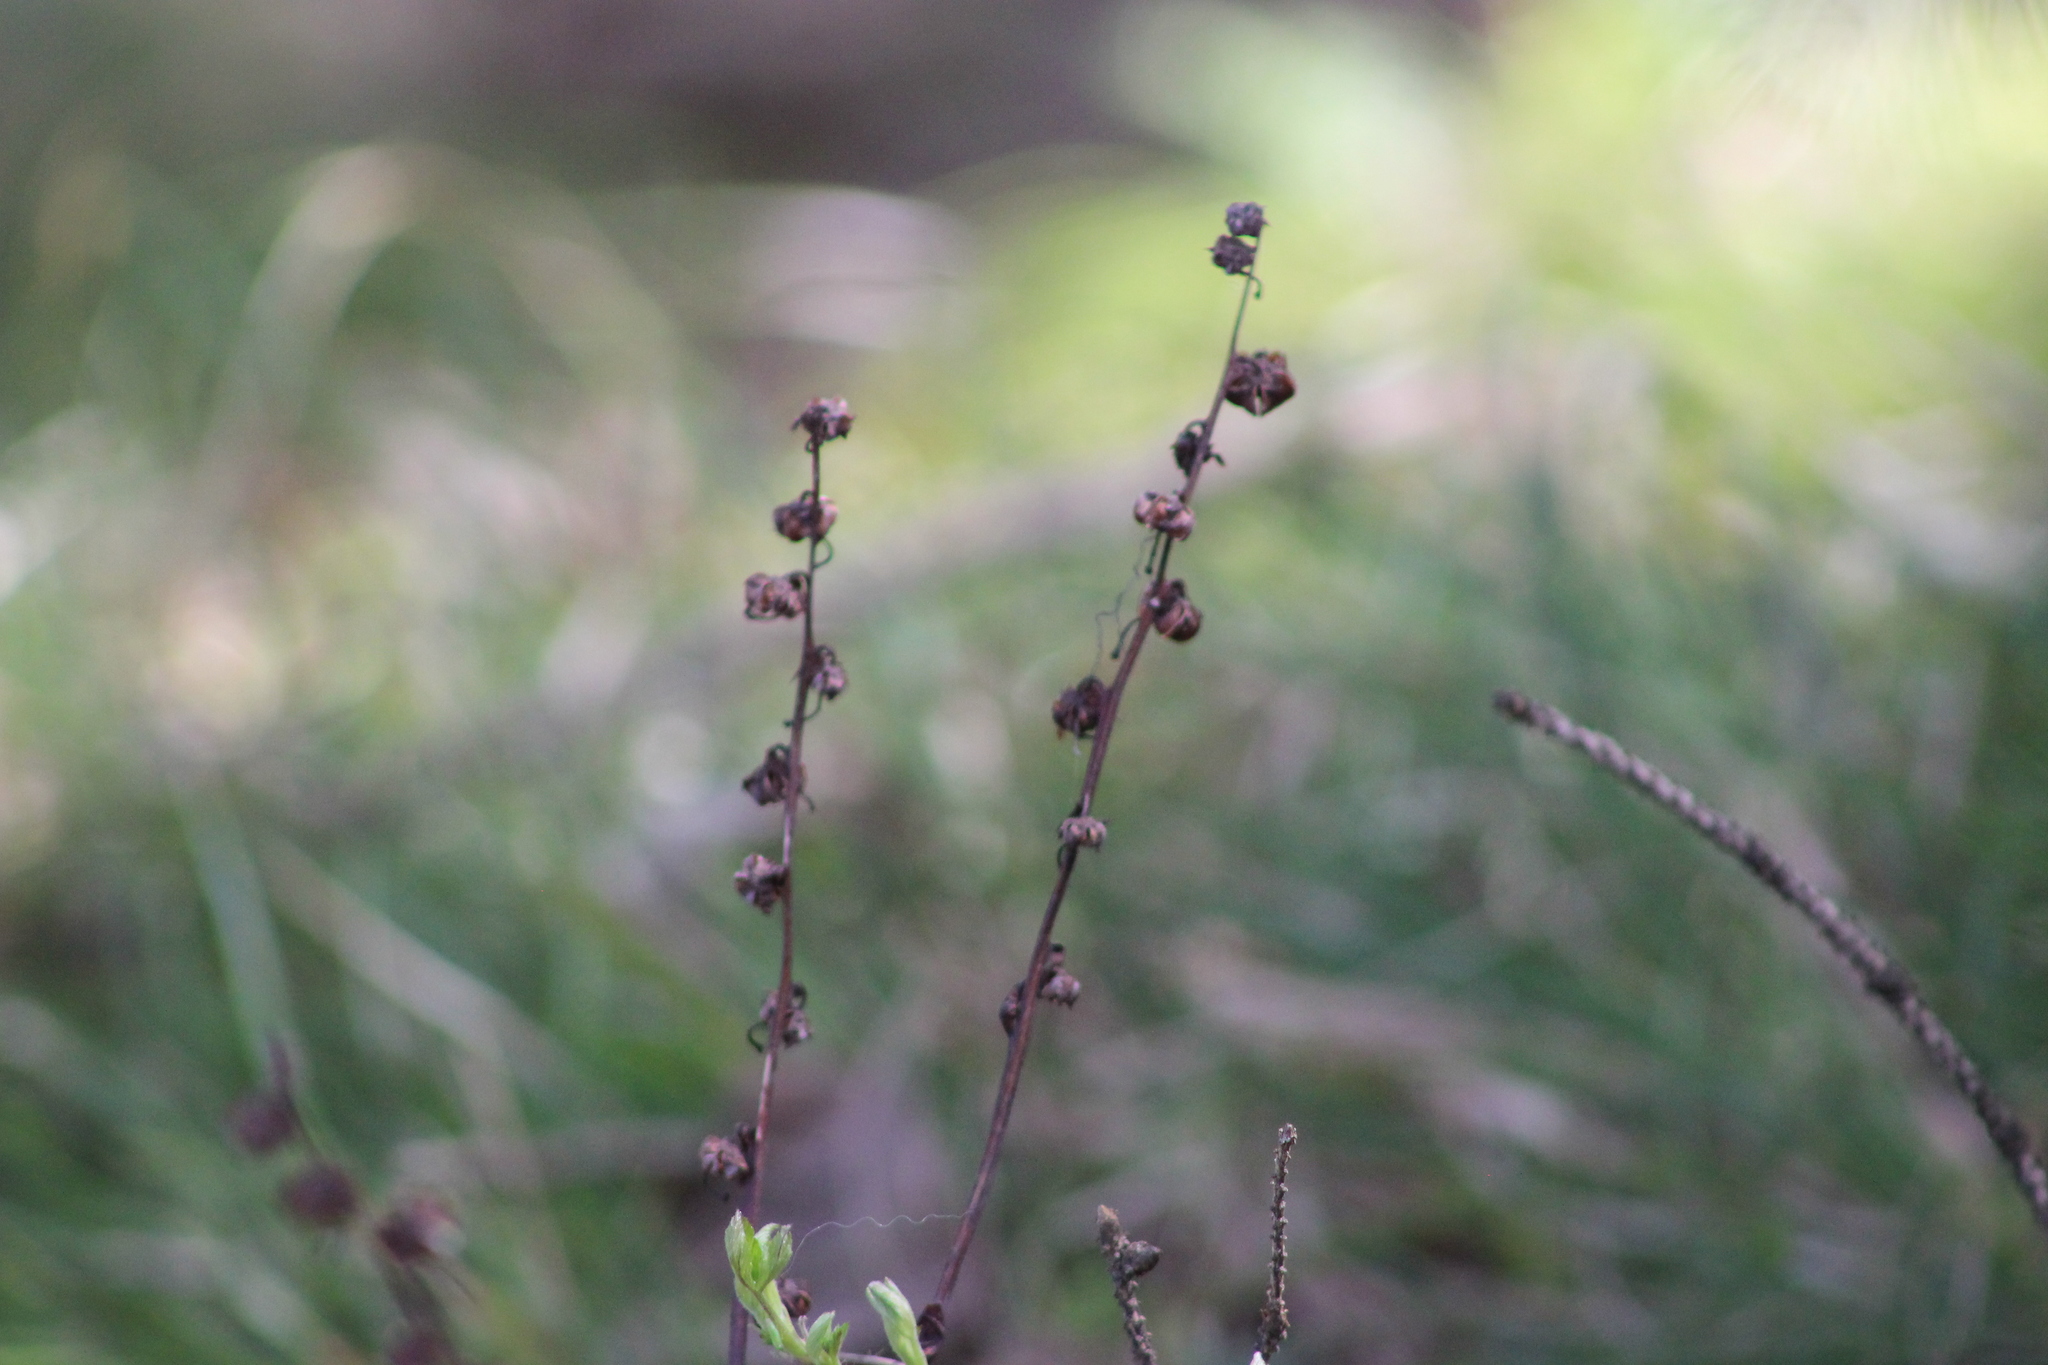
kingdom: Plantae
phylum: Tracheophyta
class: Magnoliopsida
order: Ericales
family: Ericaceae
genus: Pyrola
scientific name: Pyrola asarifolia
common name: Bog wintergreen
